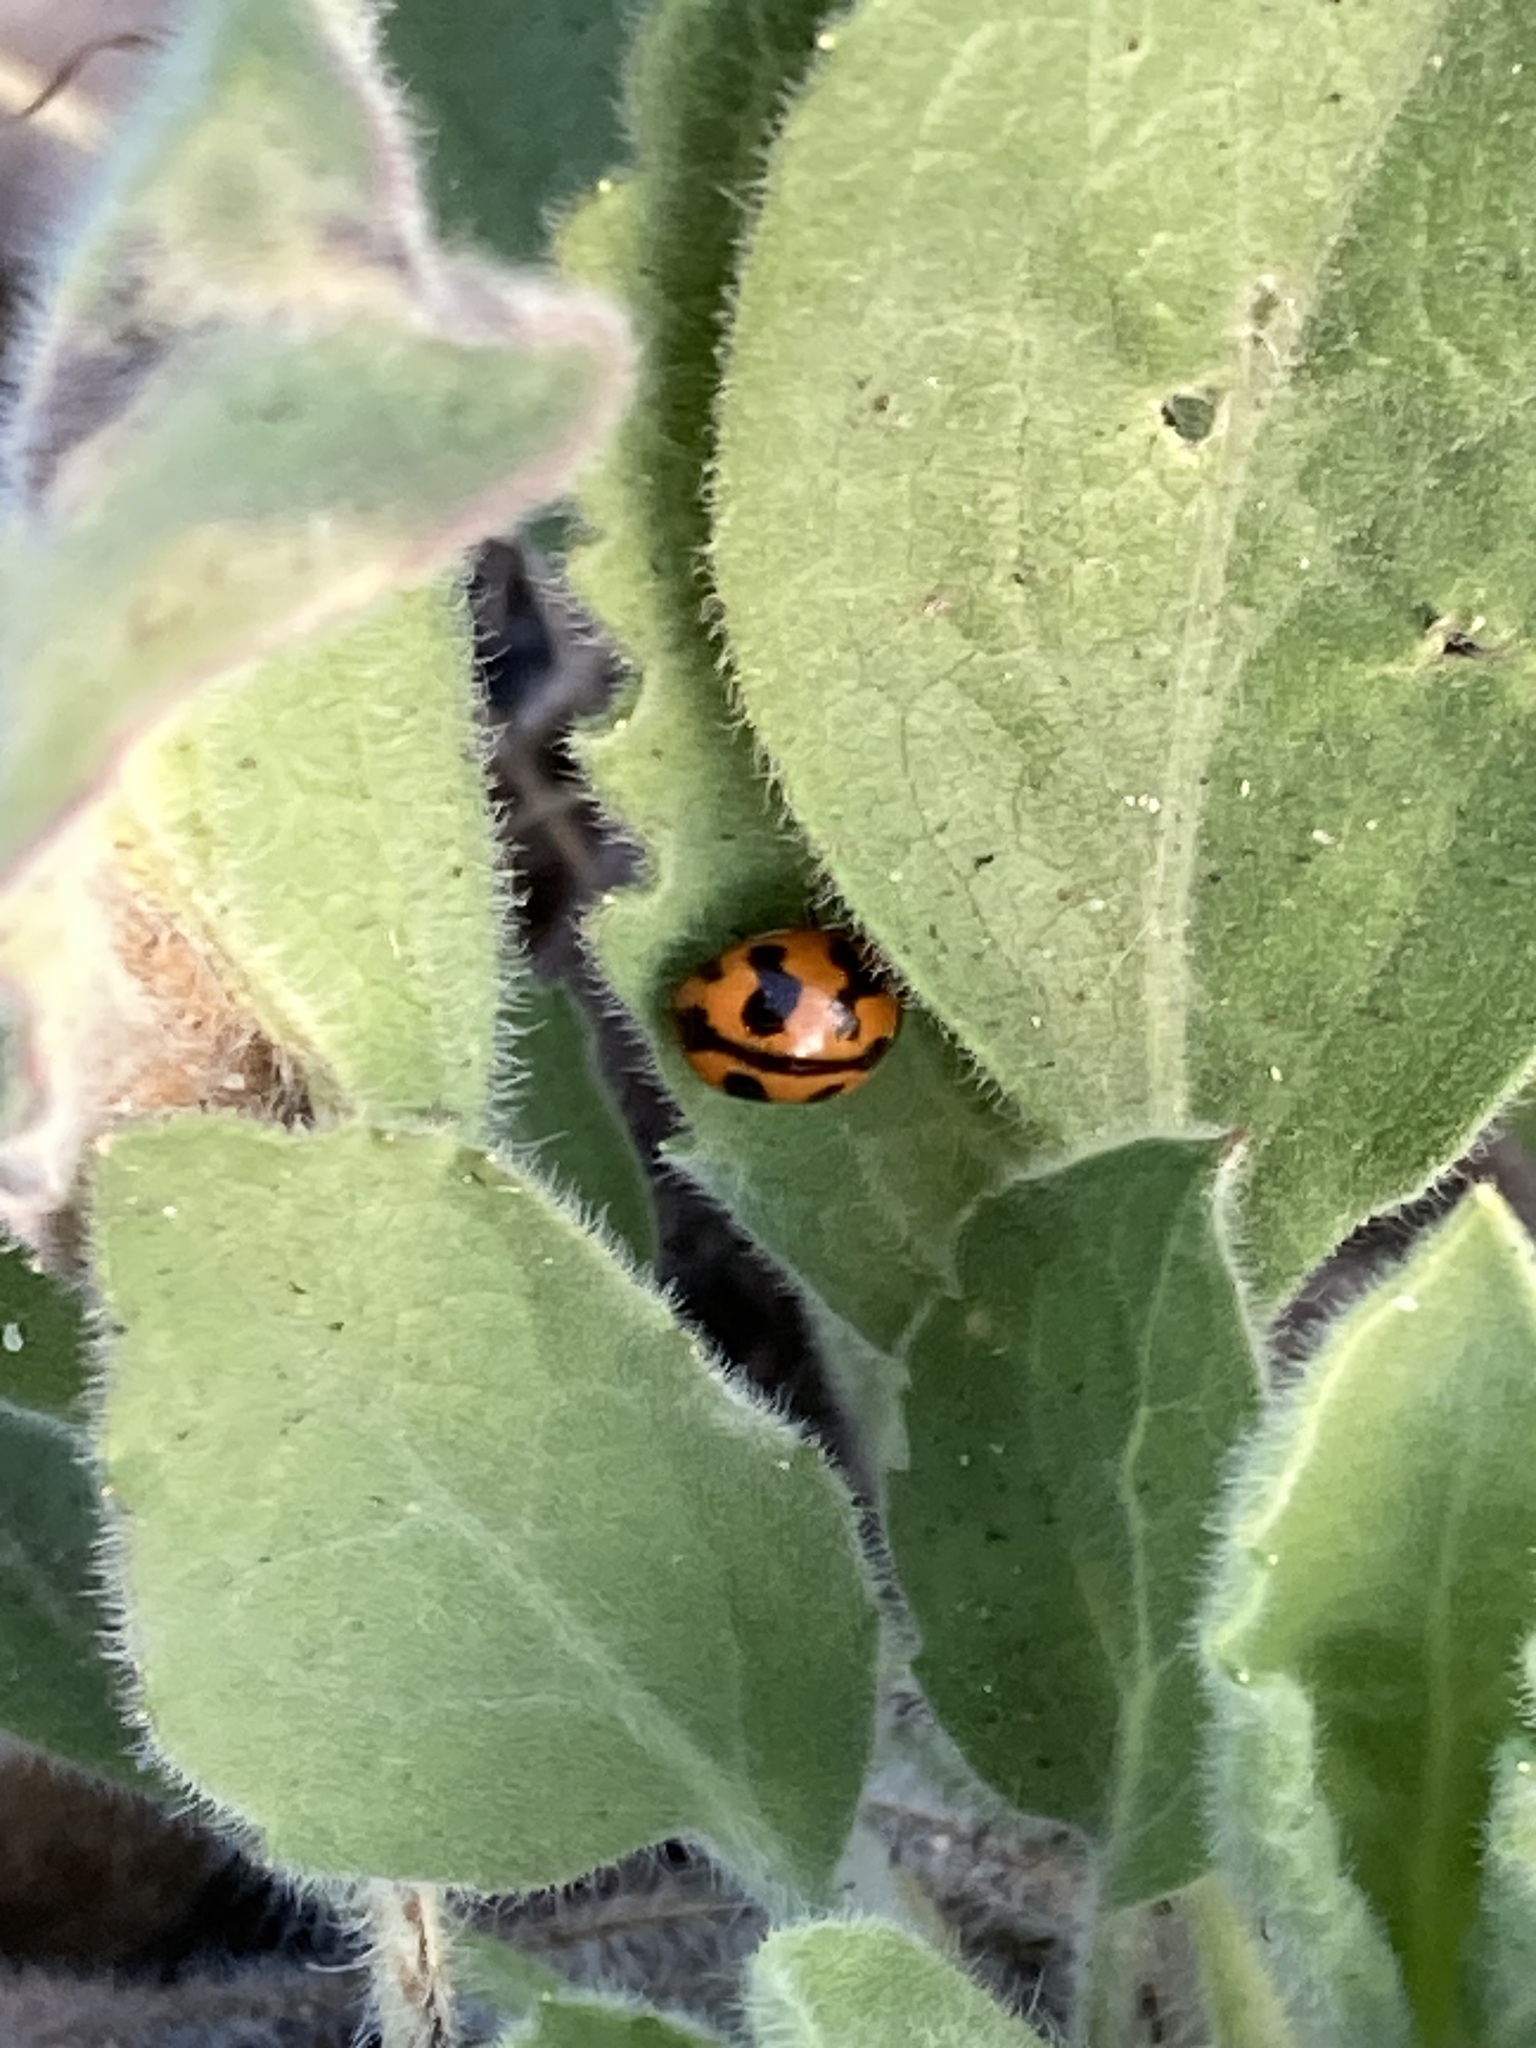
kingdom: Animalia
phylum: Arthropoda
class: Insecta
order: Coleoptera
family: Coccinellidae
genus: Coccinella
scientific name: Coccinella transversalis
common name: Transverse lady beetle
